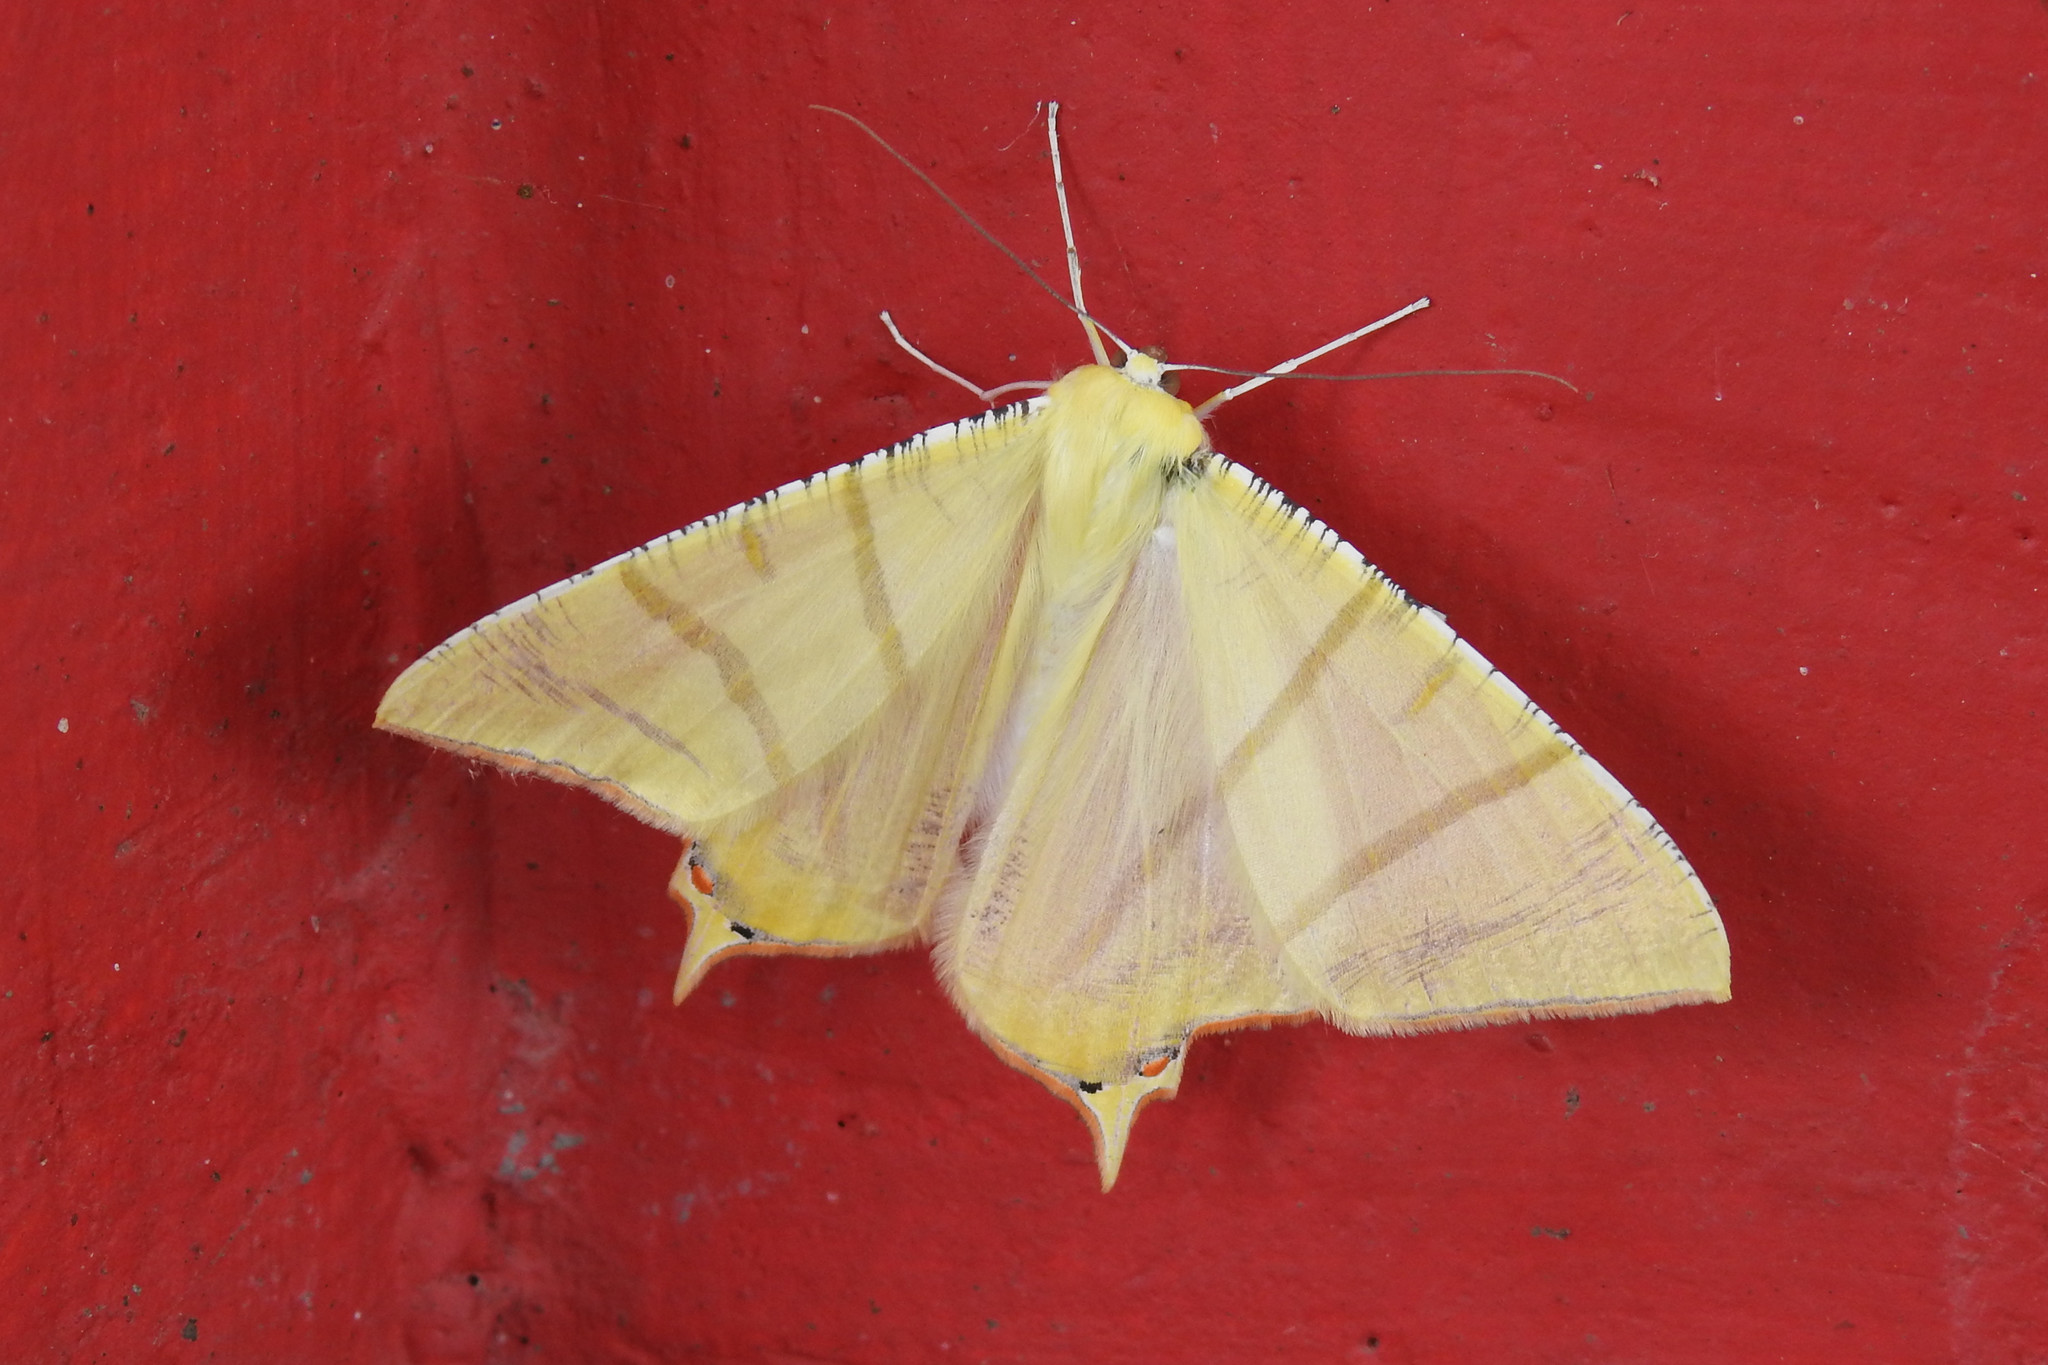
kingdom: Animalia
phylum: Arthropoda
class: Insecta
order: Lepidoptera
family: Geometridae
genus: Ourapteryx
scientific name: Ourapteryx sciticaudaria
